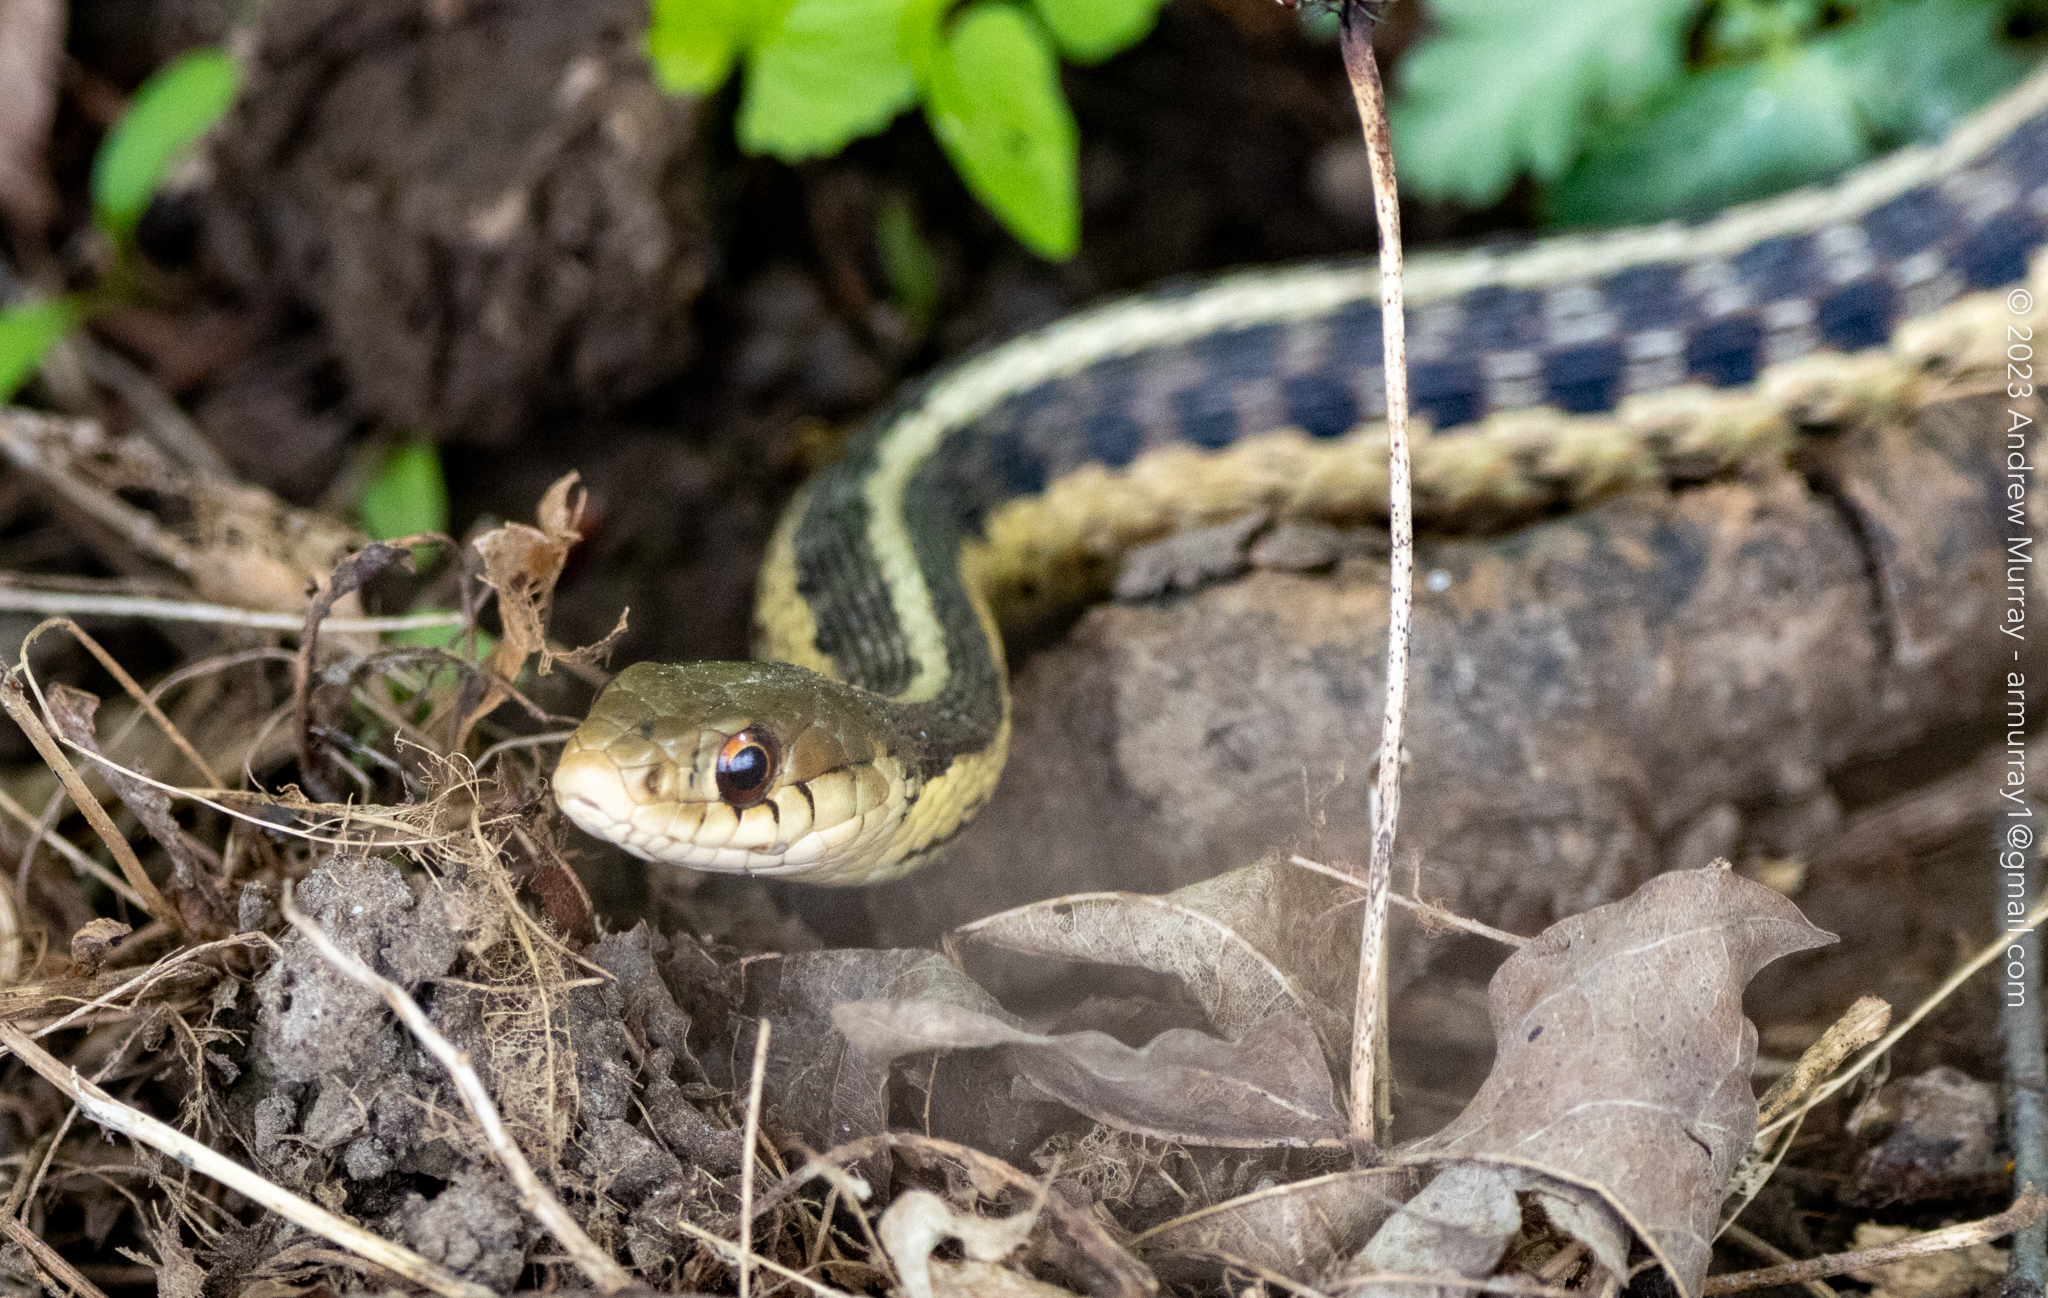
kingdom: Animalia
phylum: Chordata
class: Squamata
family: Colubridae
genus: Thamnophis
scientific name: Thamnophis sirtalis
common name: Common garter snake
